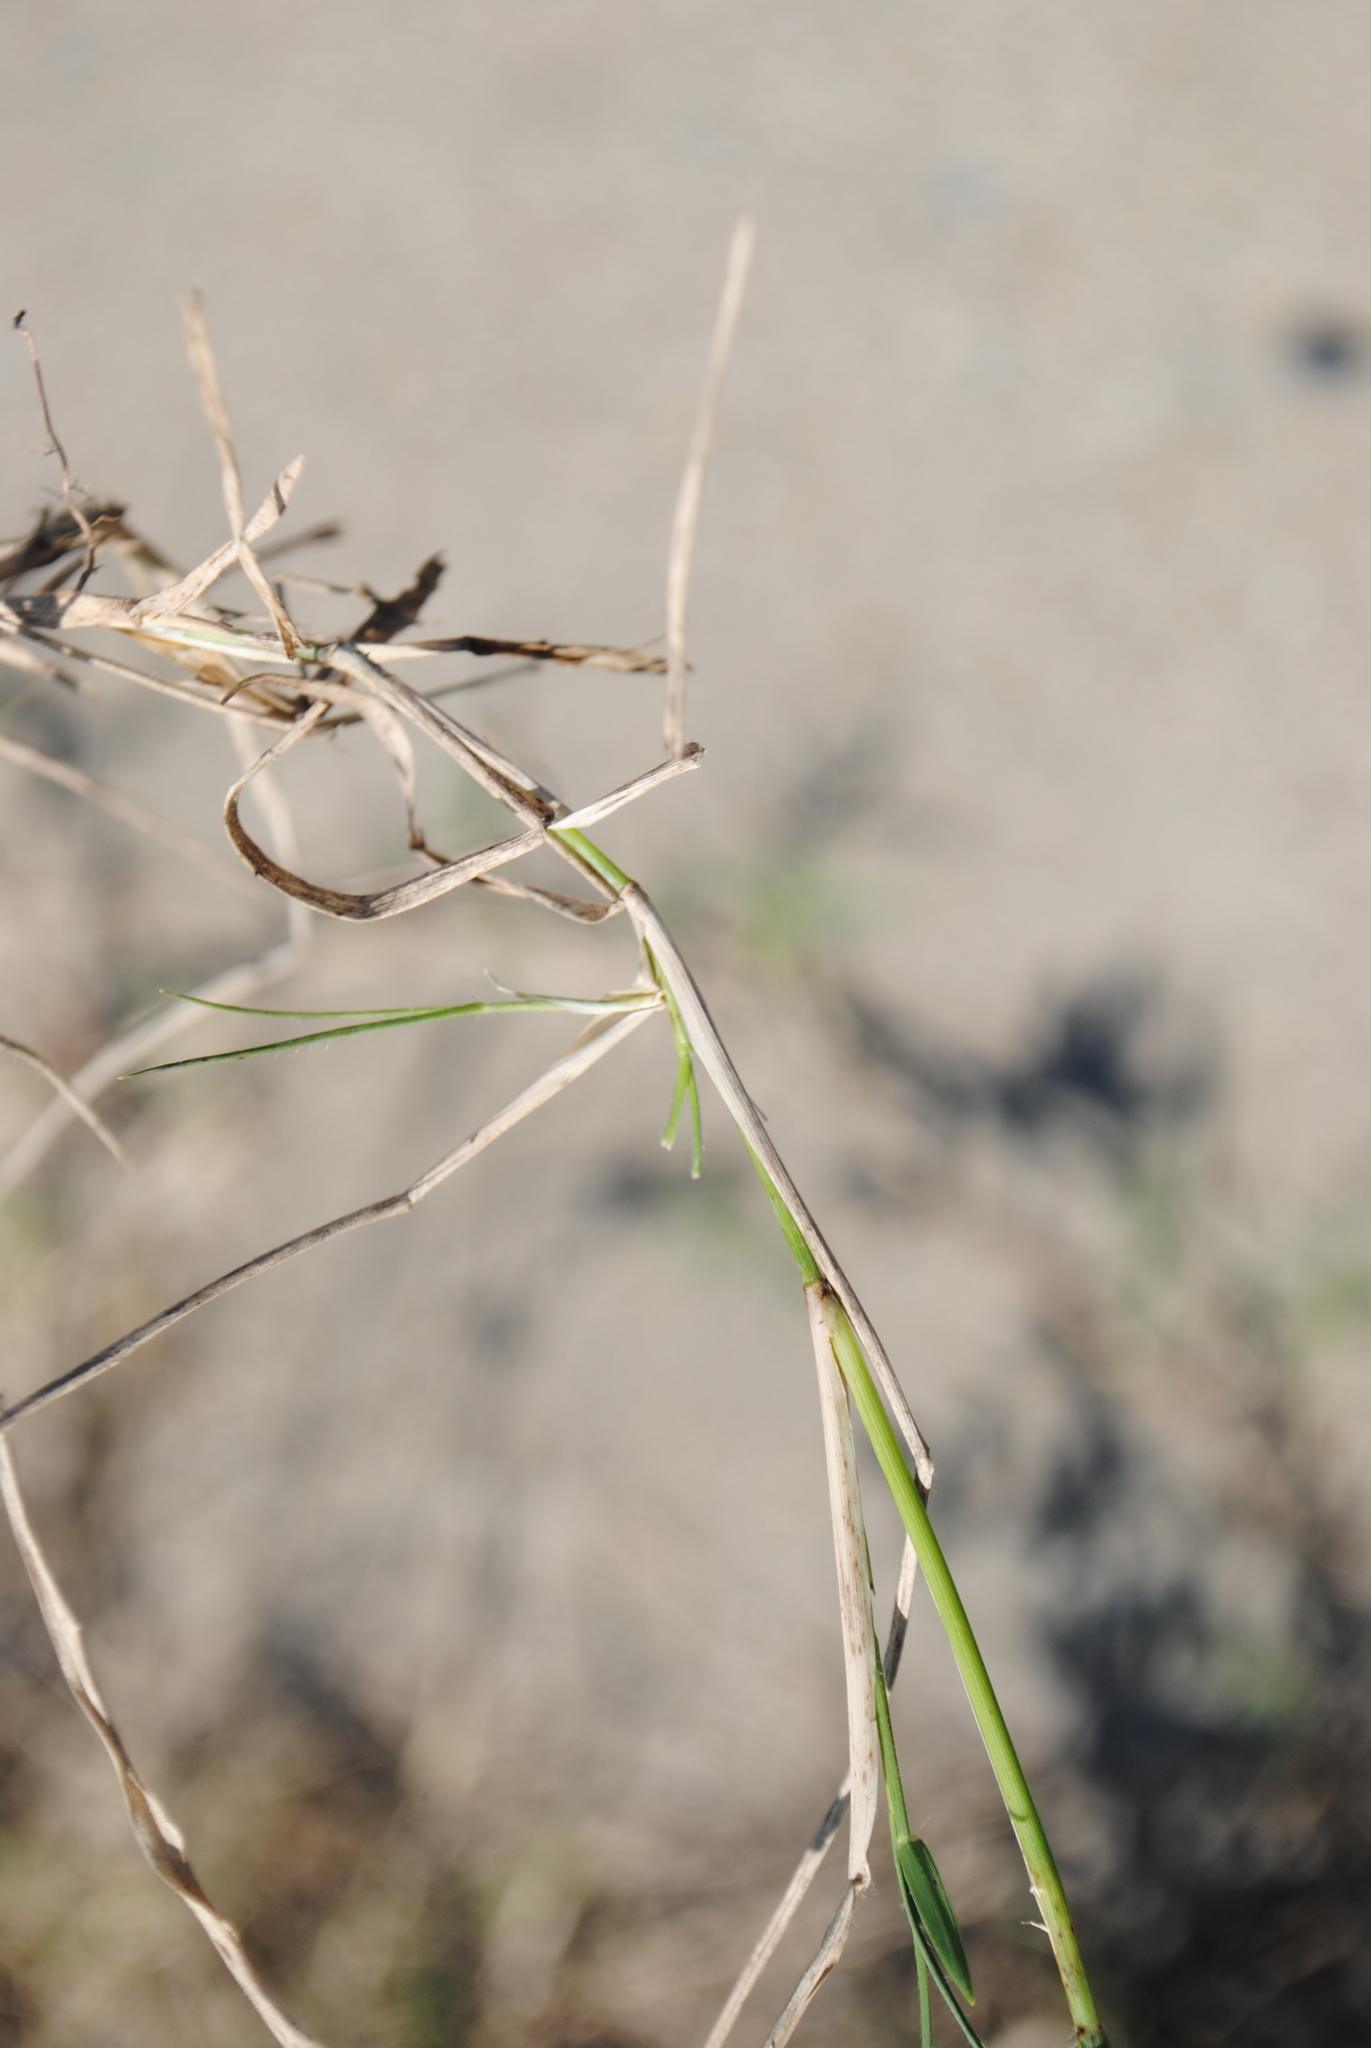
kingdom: Plantae
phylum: Tracheophyta
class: Liliopsida
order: Poales
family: Poaceae
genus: Cynodon
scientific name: Cynodon dactylon
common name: Bermuda grass
